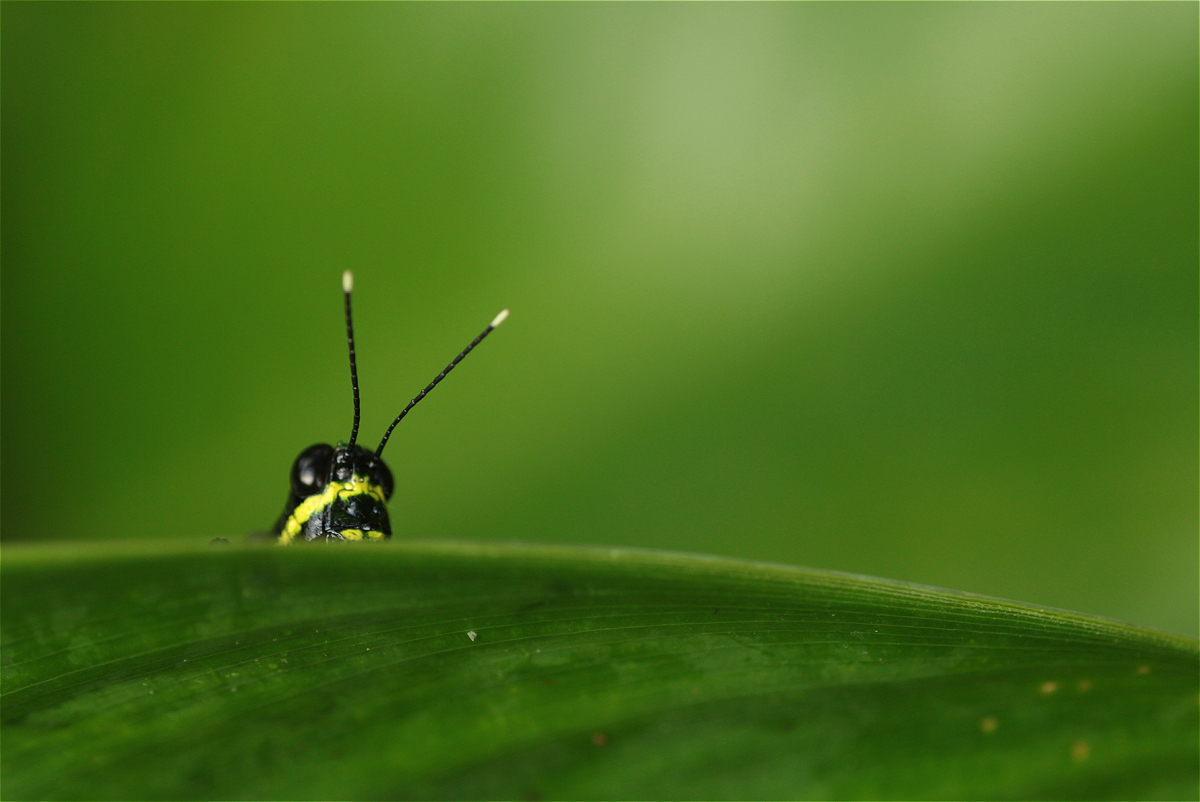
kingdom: Animalia
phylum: Arthropoda
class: Insecta
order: Orthoptera
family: Acrididae
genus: Tetrataenia
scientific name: Tetrataenia surinama
